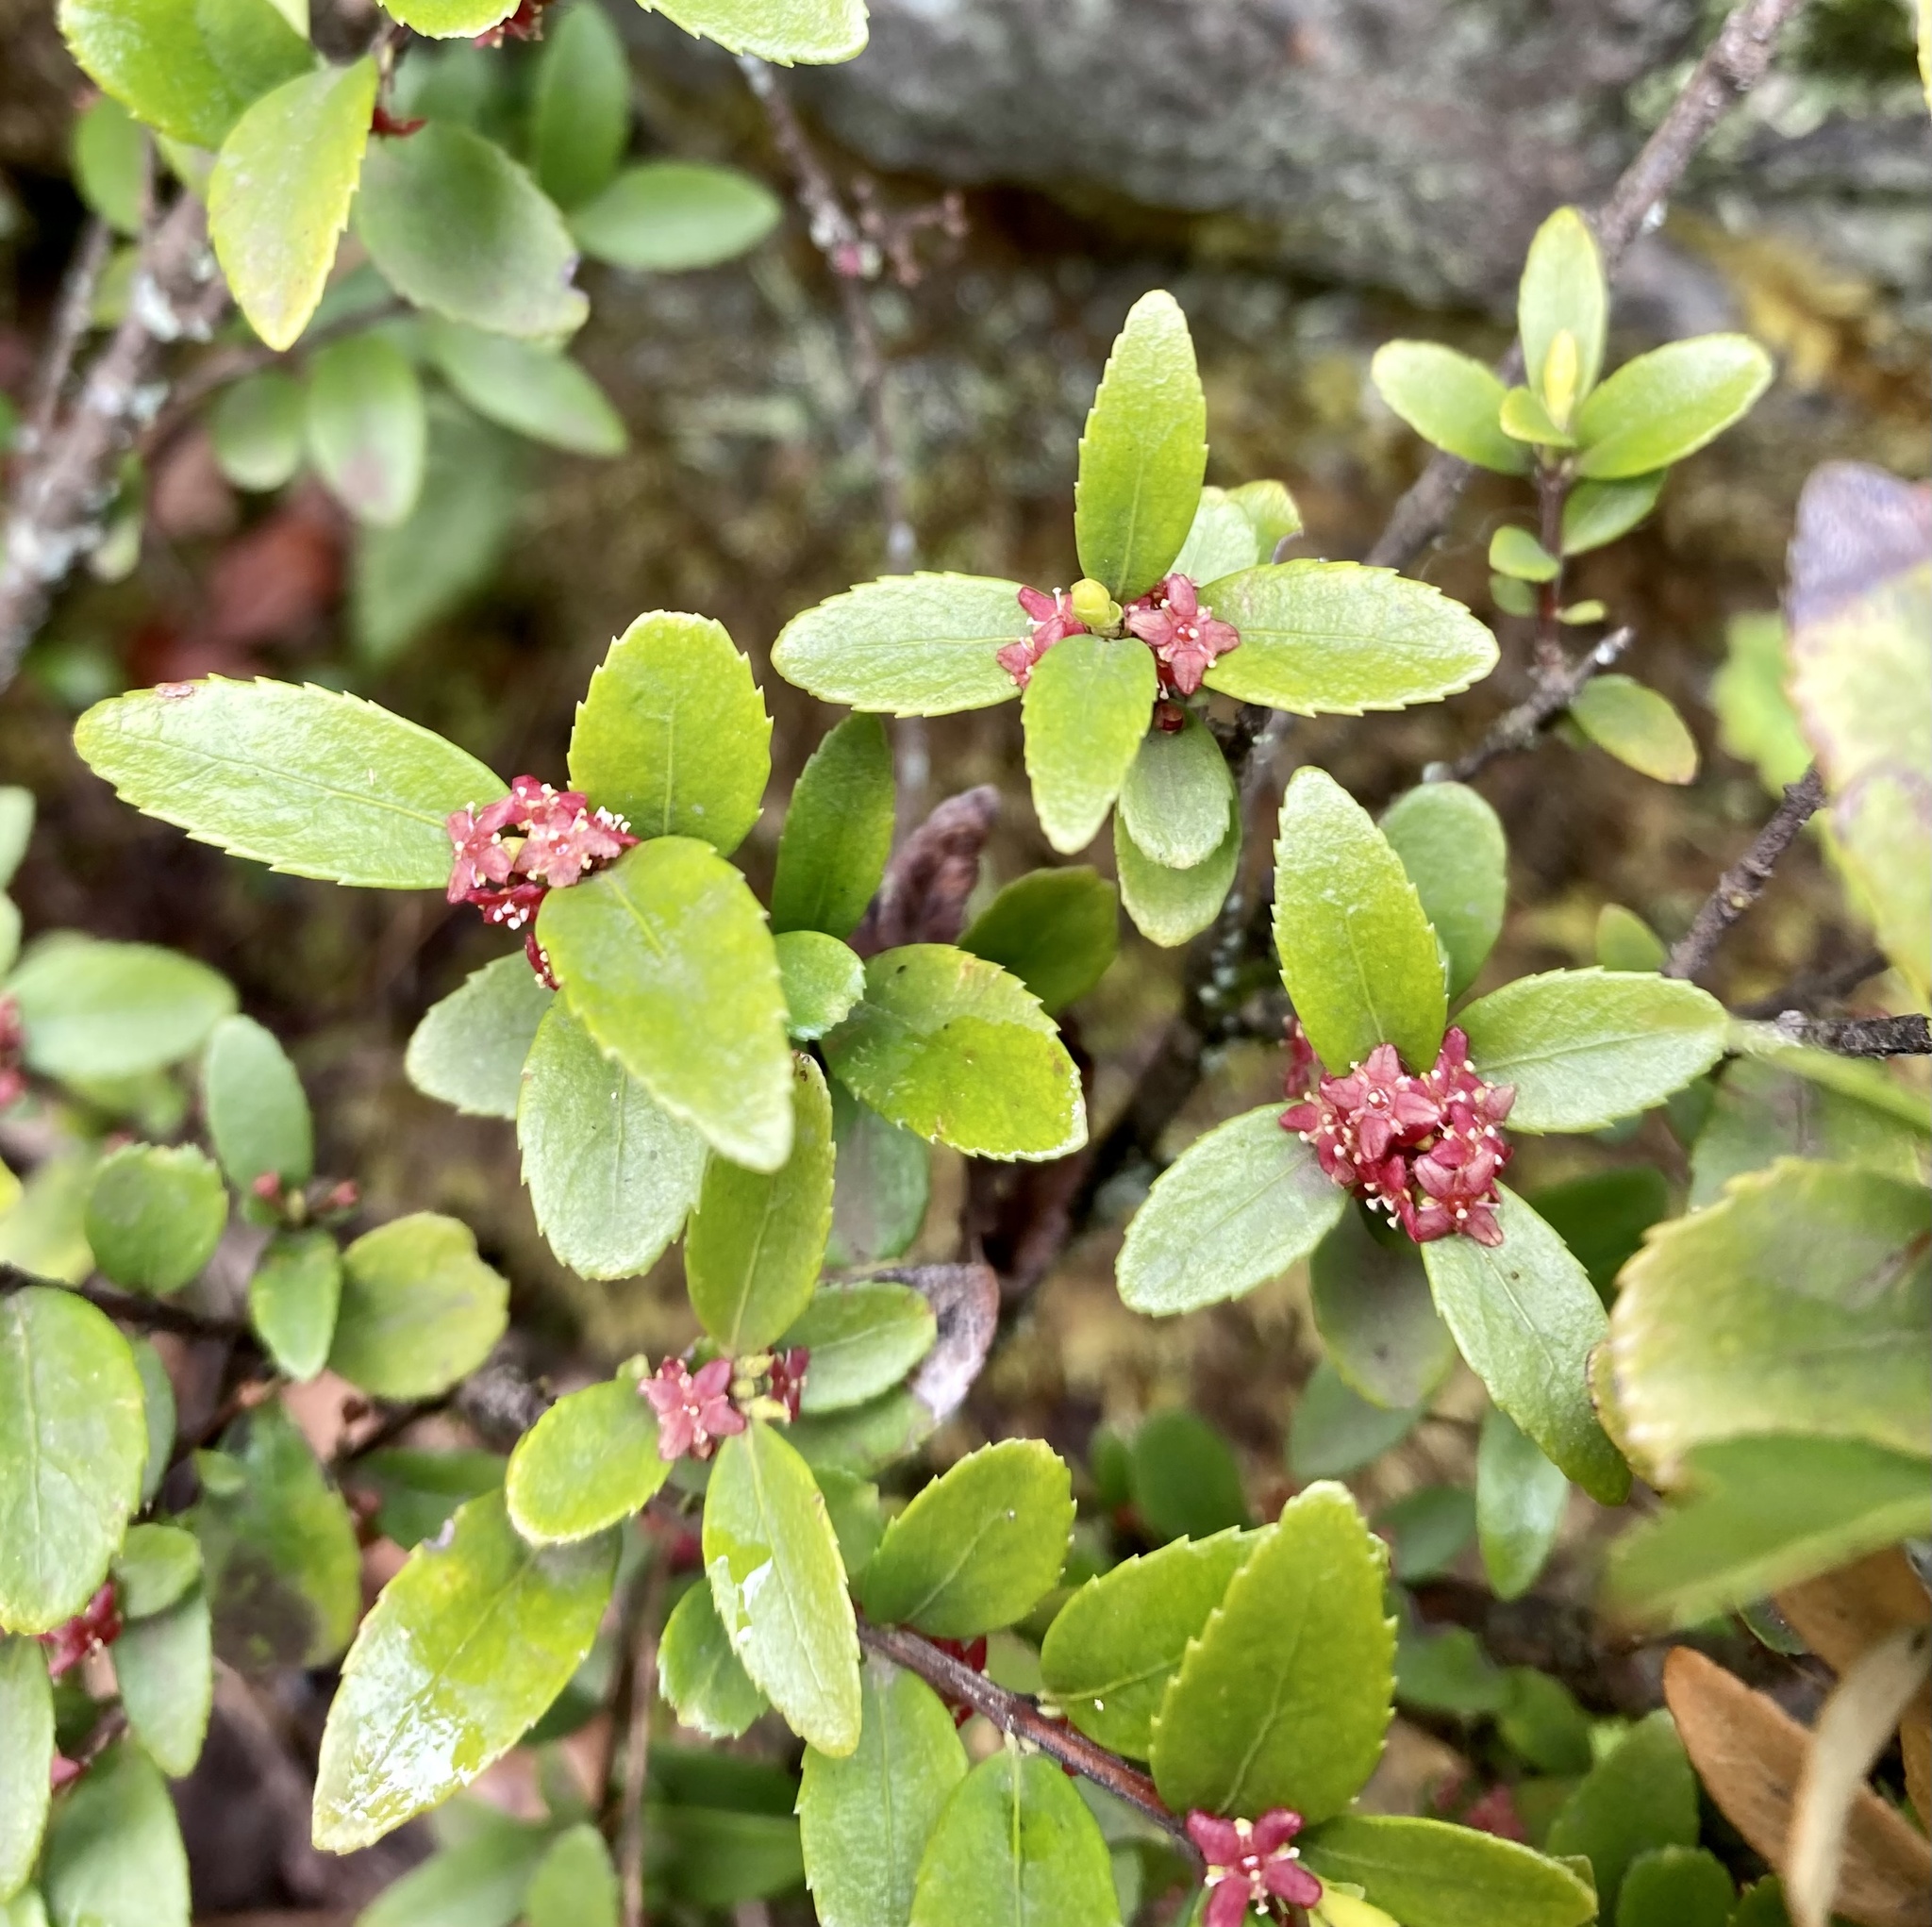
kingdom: Plantae
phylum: Tracheophyta
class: Magnoliopsida
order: Celastrales
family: Celastraceae
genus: Paxistima
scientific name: Paxistima myrsinites
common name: Mountain-lover
